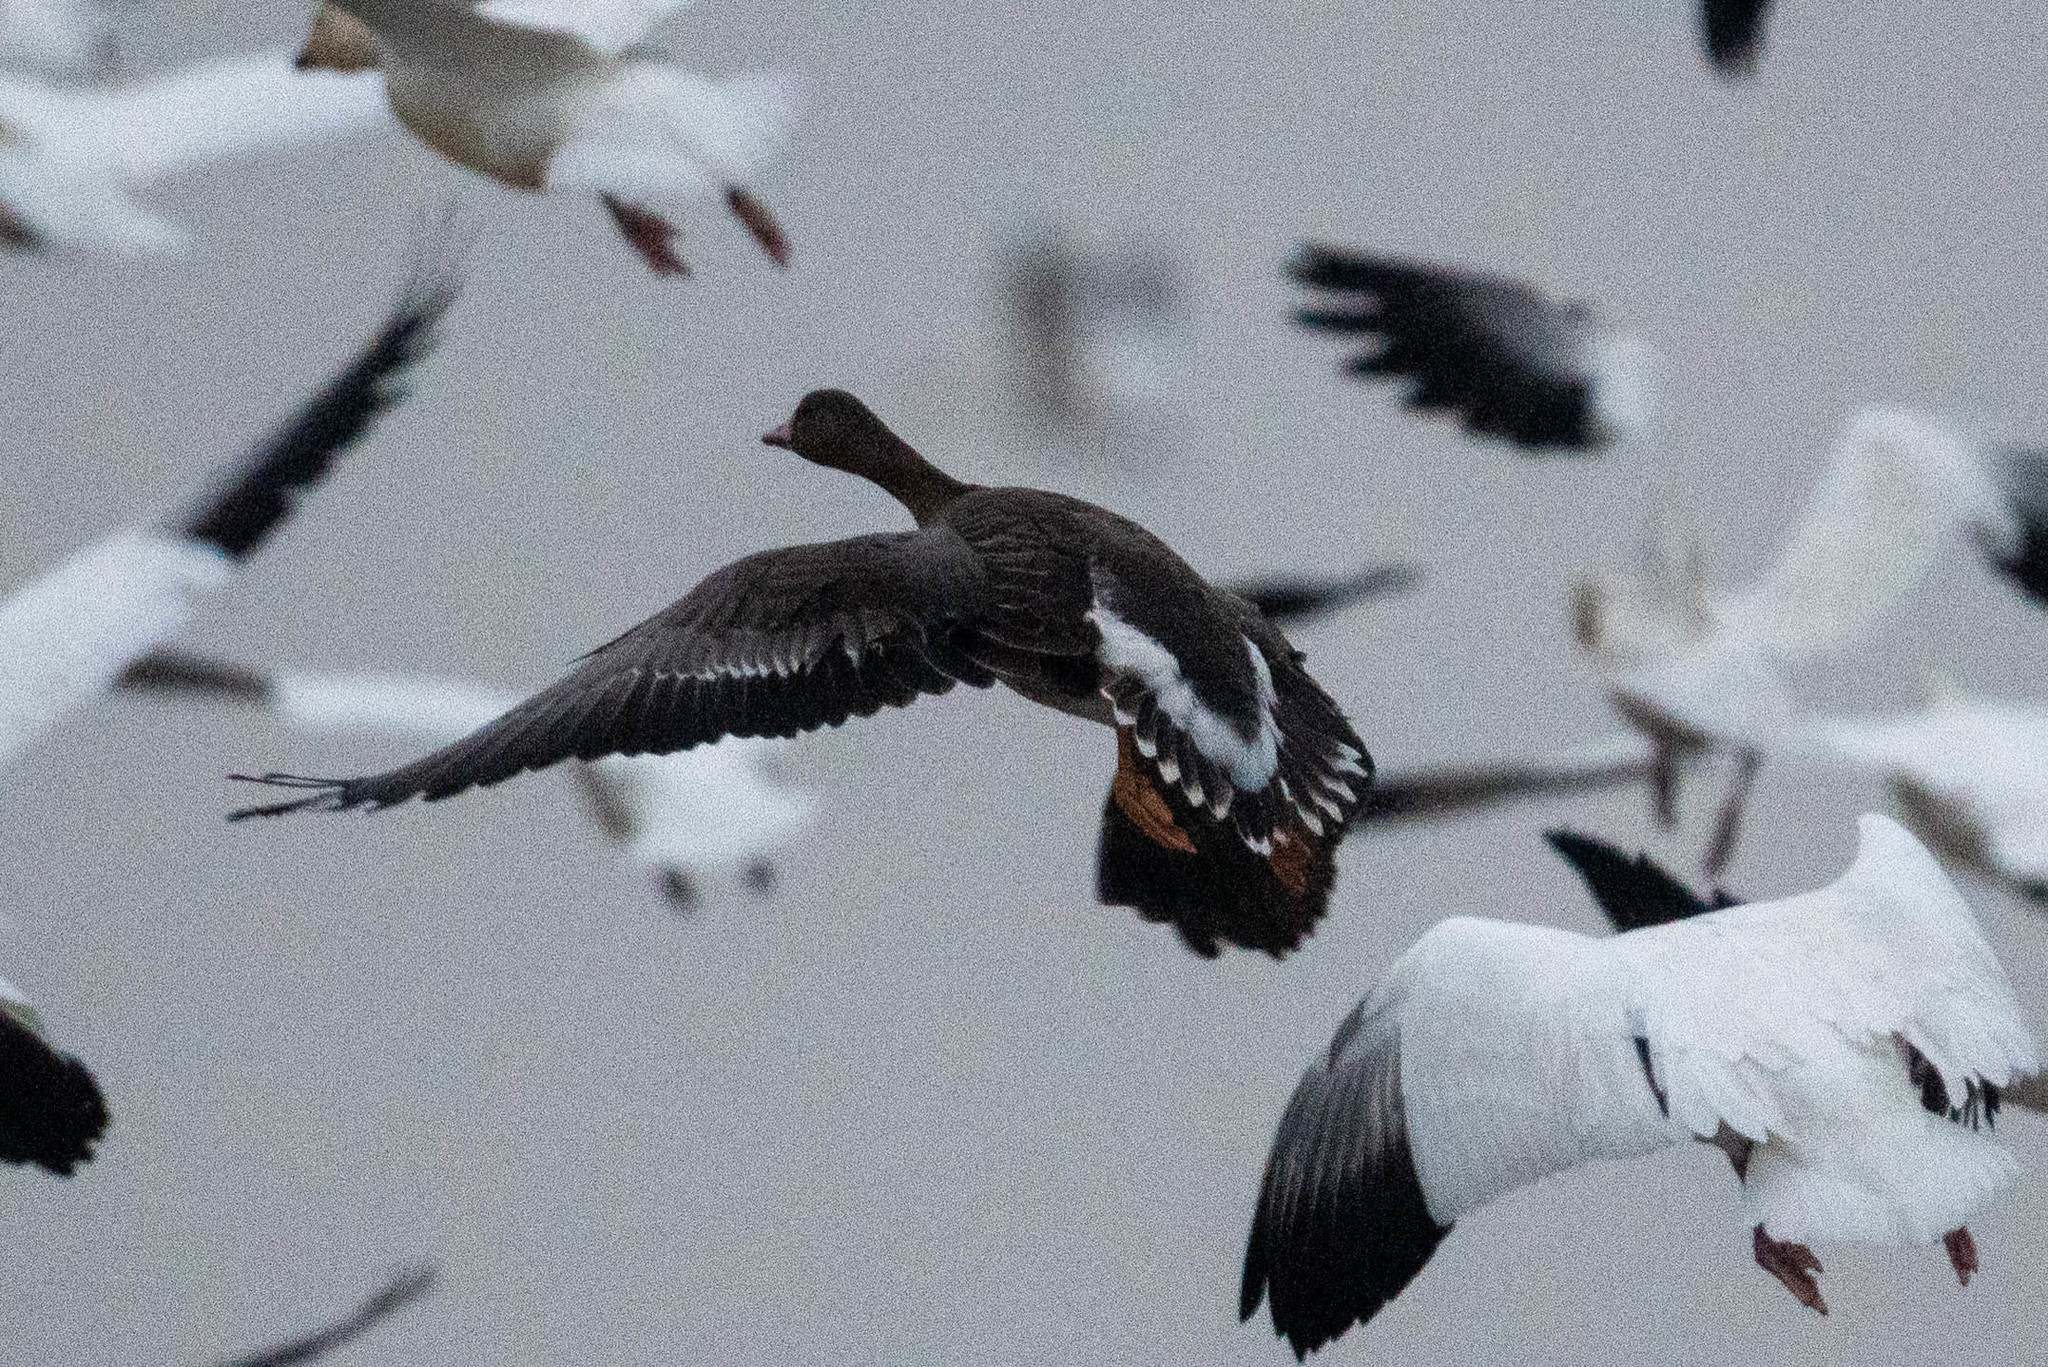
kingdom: Animalia
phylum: Chordata
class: Aves
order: Anseriformes
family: Anatidae
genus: Anser
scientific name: Anser albifrons
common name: Greater white-fronted goose
